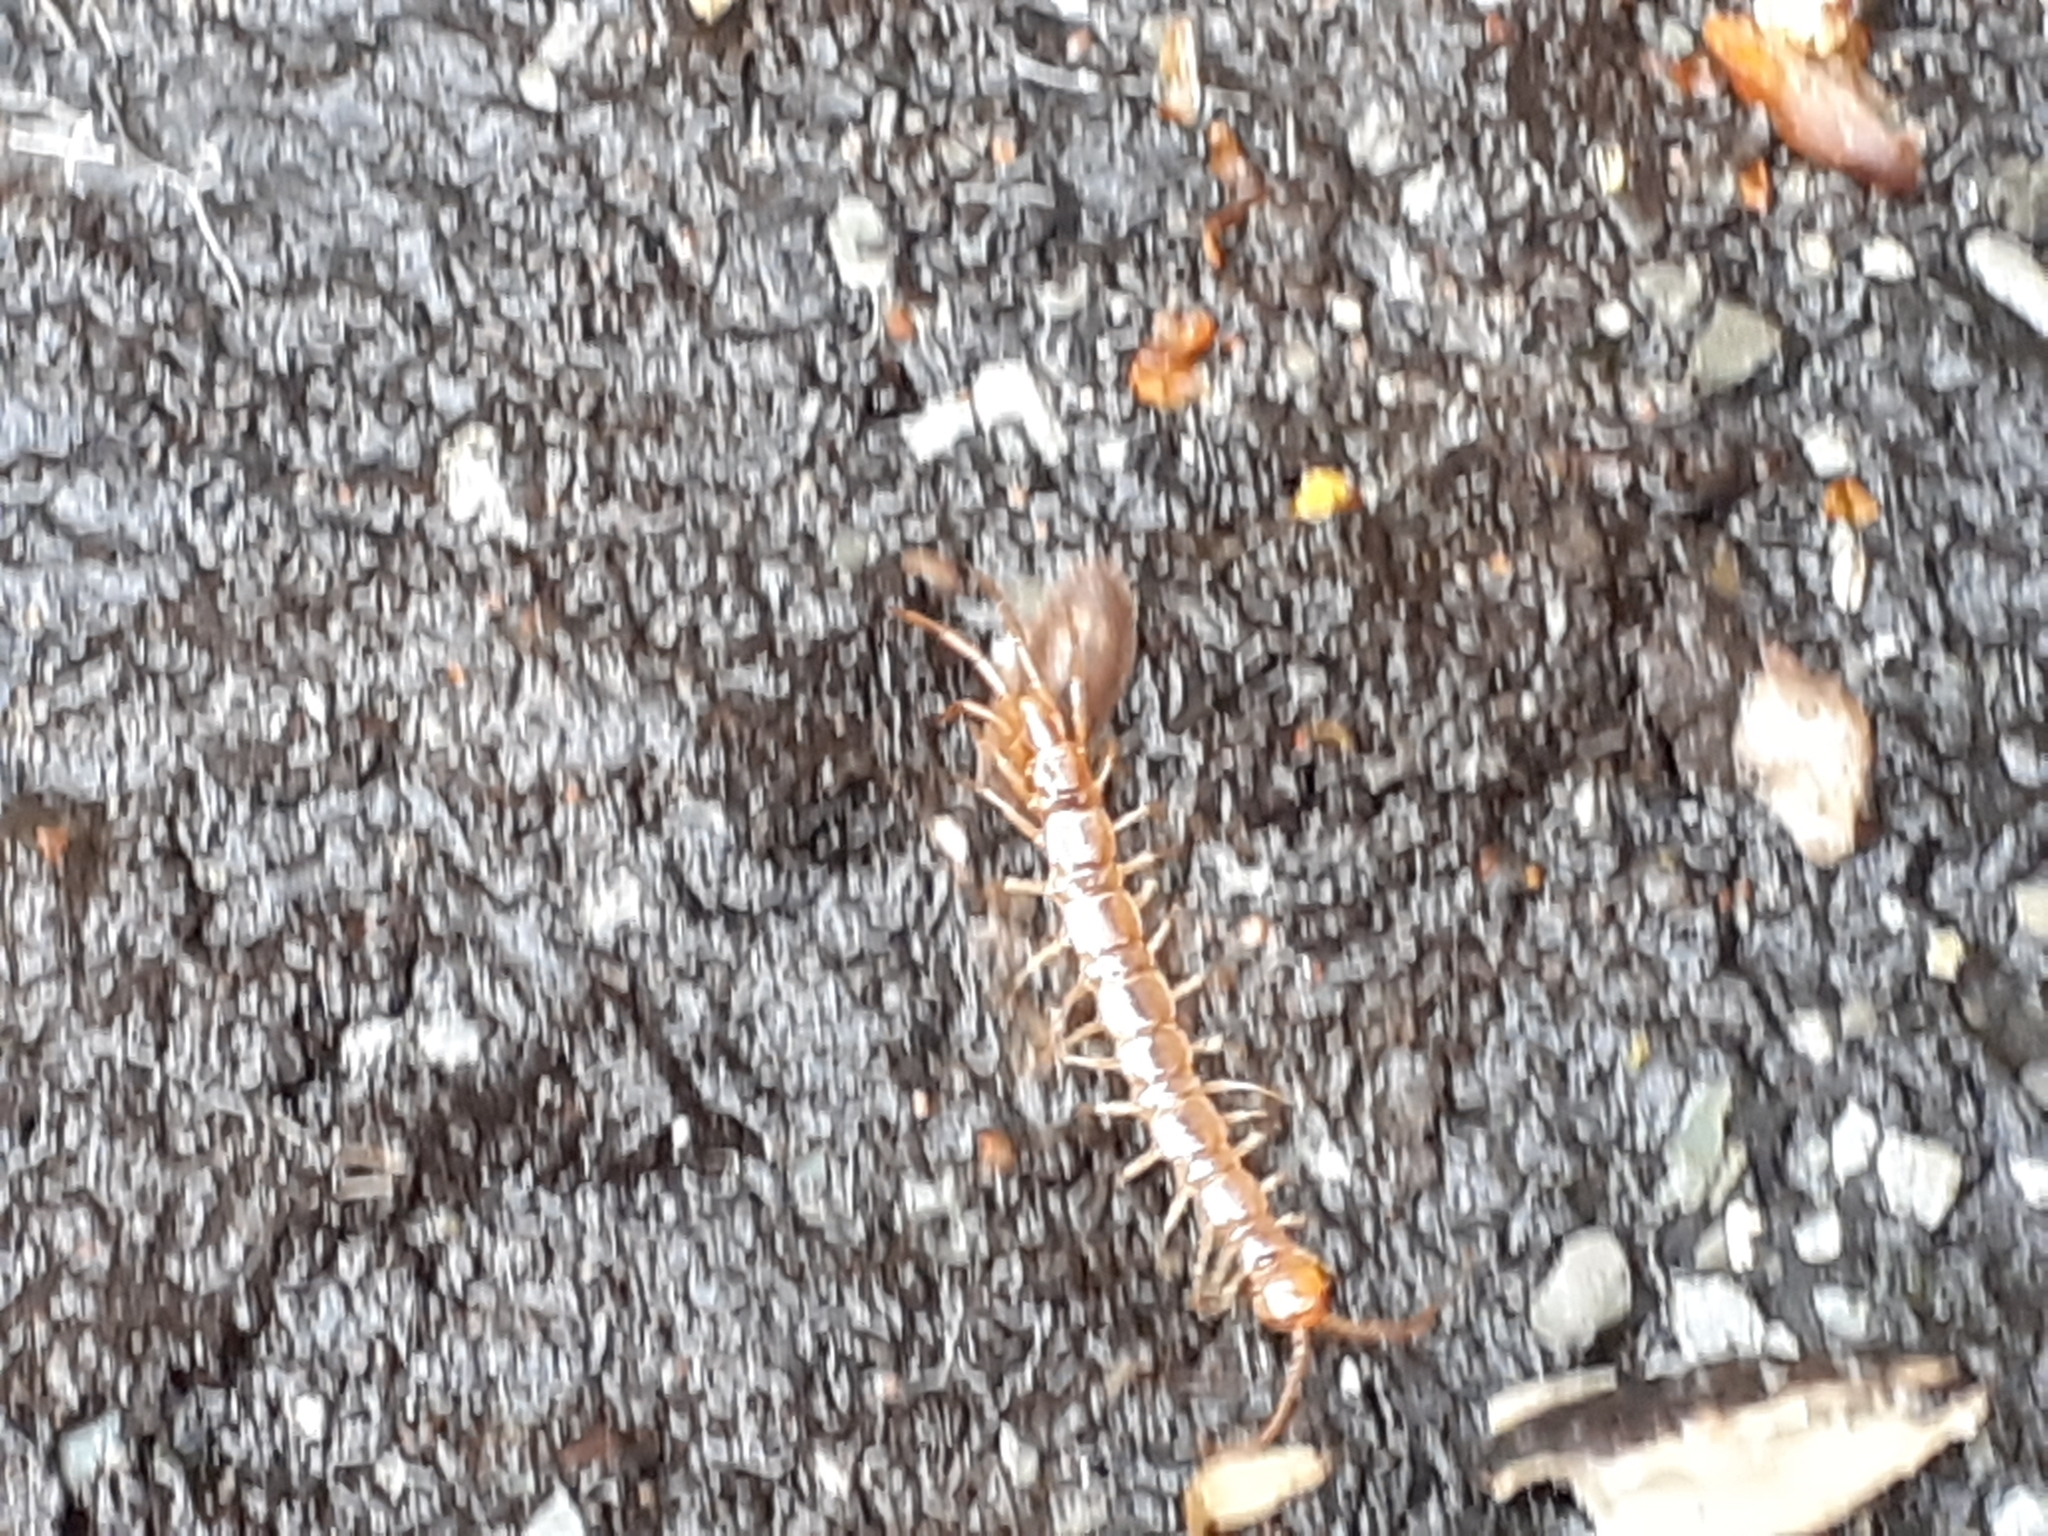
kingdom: Animalia
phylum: Arthropoda
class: Chilopoda
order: Lithobiomorpha
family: Lithobiidae
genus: Lithobius
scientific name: Lithobius melanops
